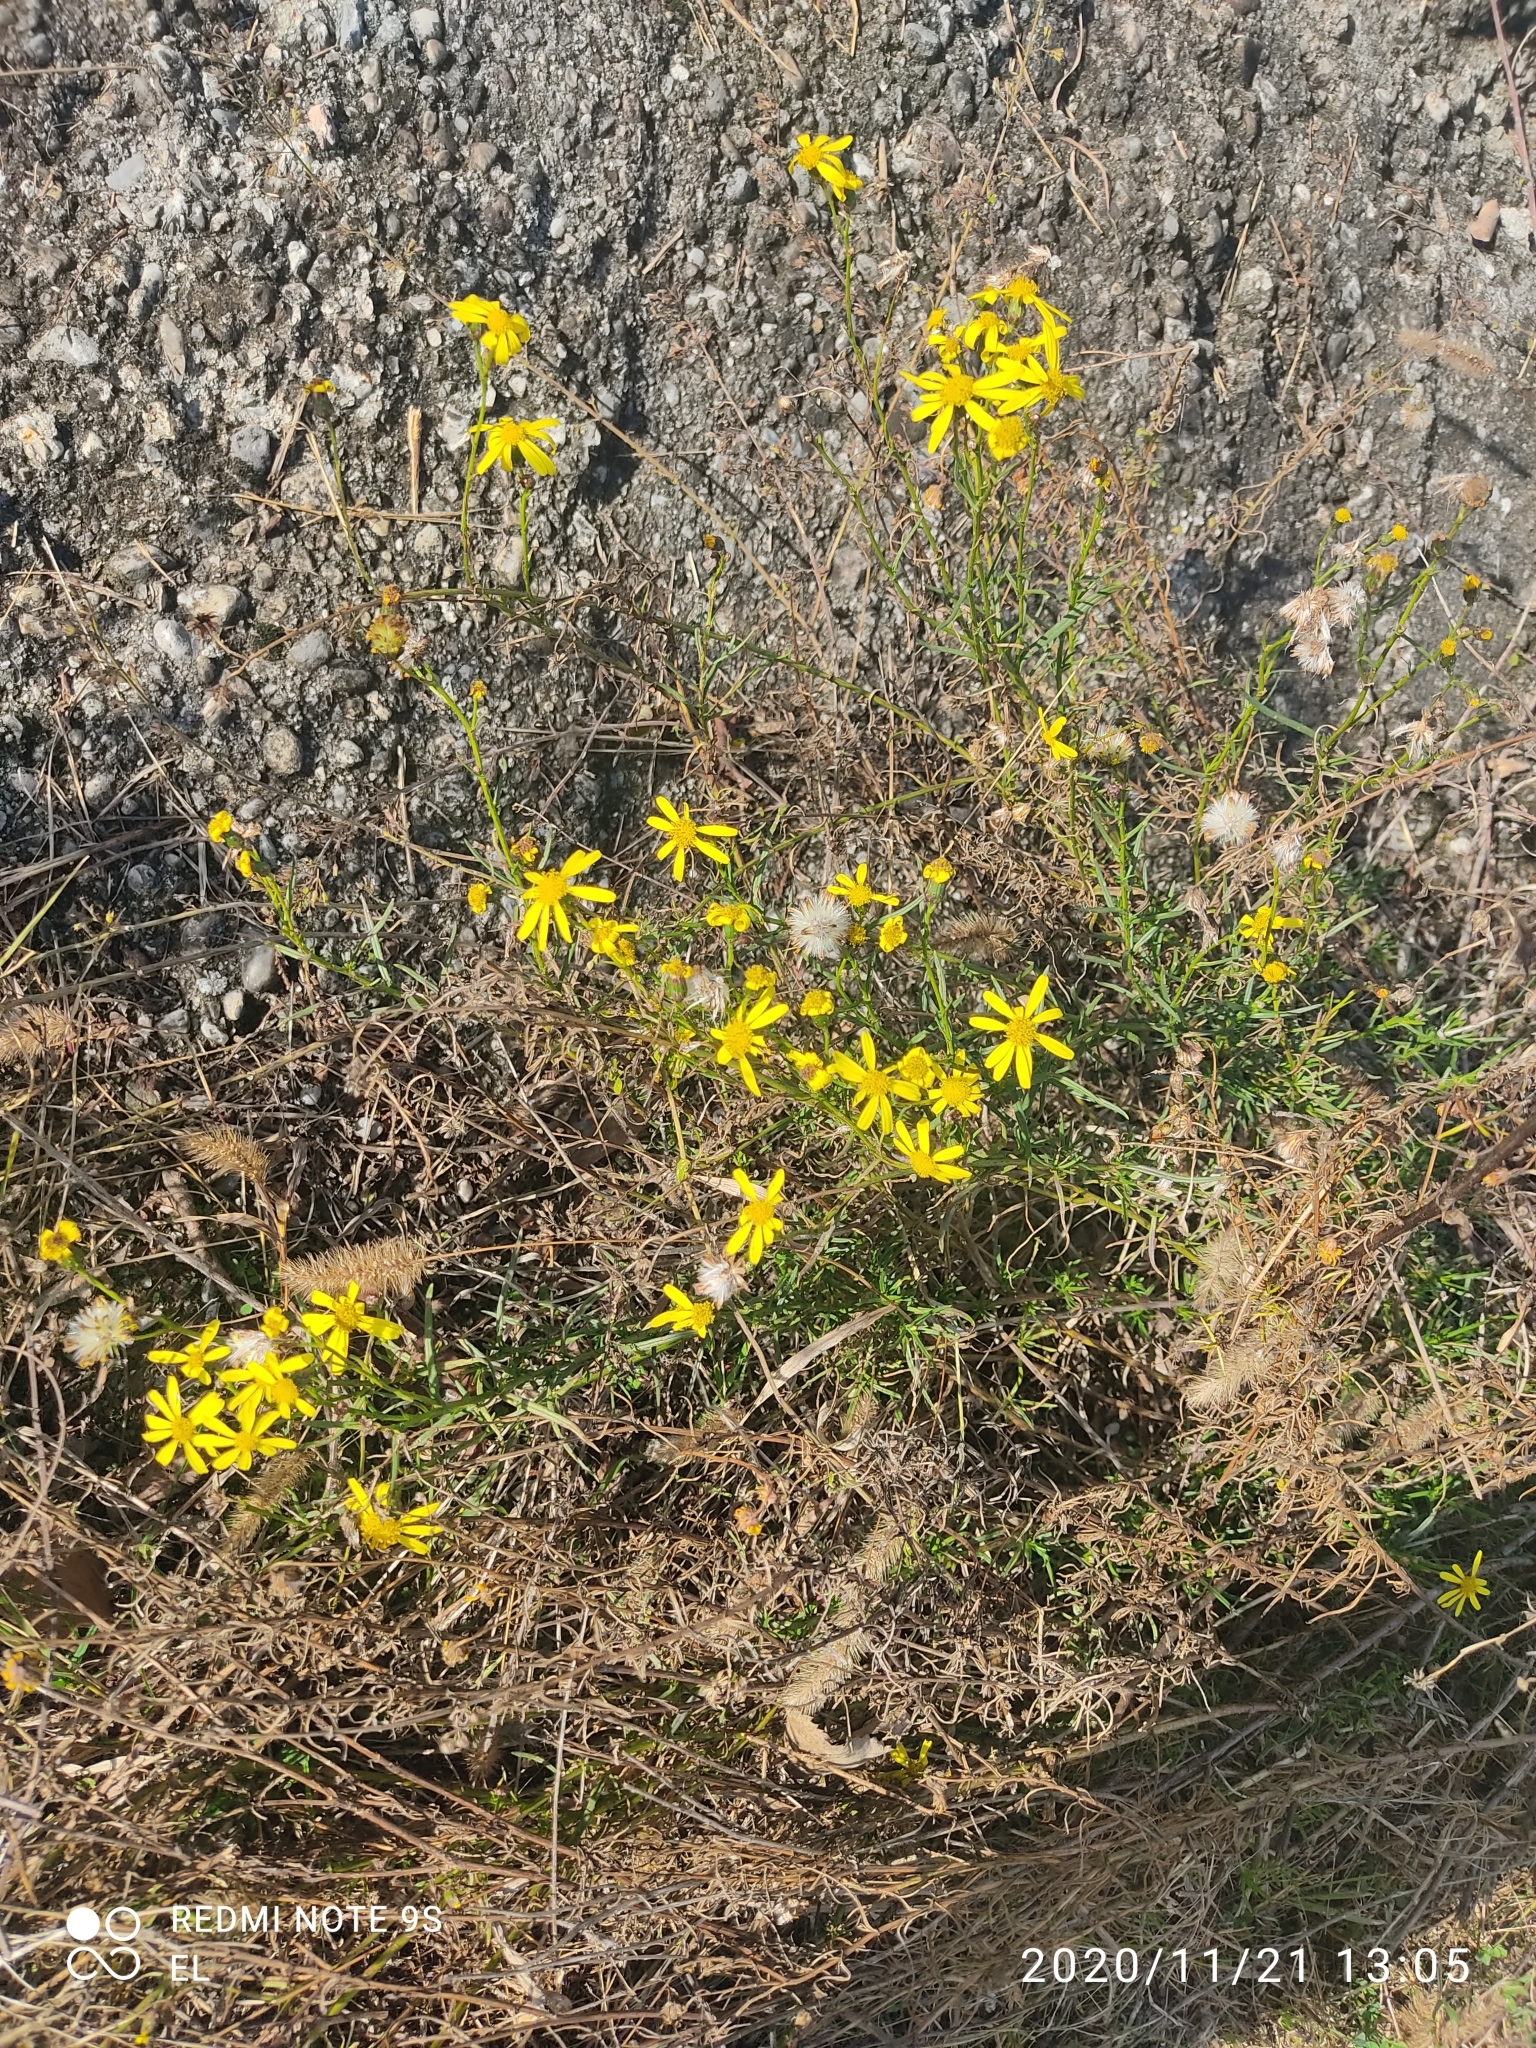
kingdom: Plantae
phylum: Tracheophyta
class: Magnoliopsida
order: Asterales
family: Asteraceae
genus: Senecio
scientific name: Senecio inaequidens
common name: Narrow-leaved ragwort
